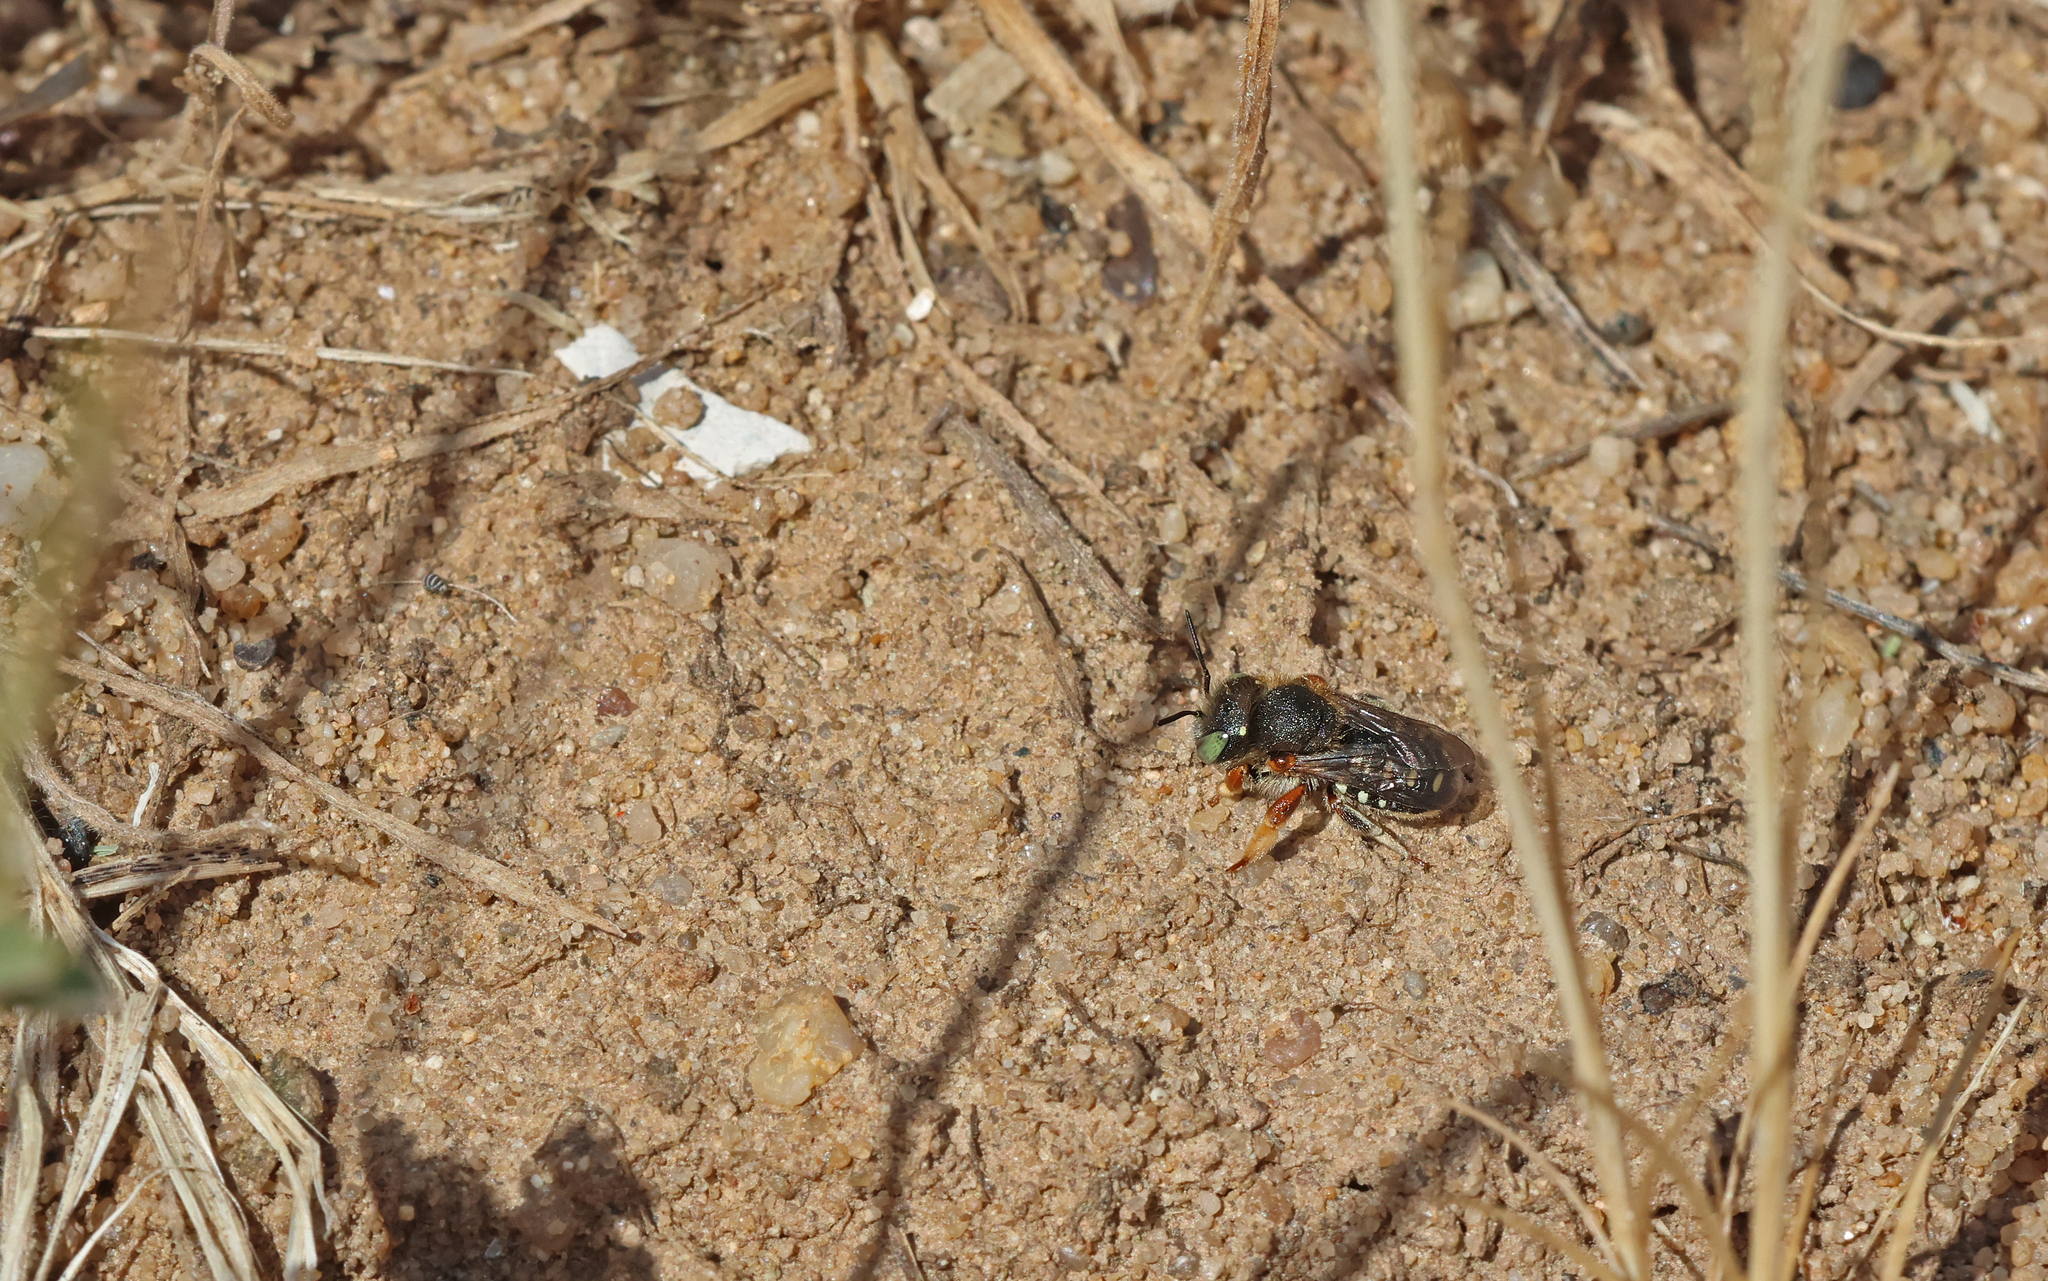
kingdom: Animalia
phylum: Arthropoda
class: Insecta
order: Hymenoptera
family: Megachilidae
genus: Anthidium
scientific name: Anthidium punctatum
